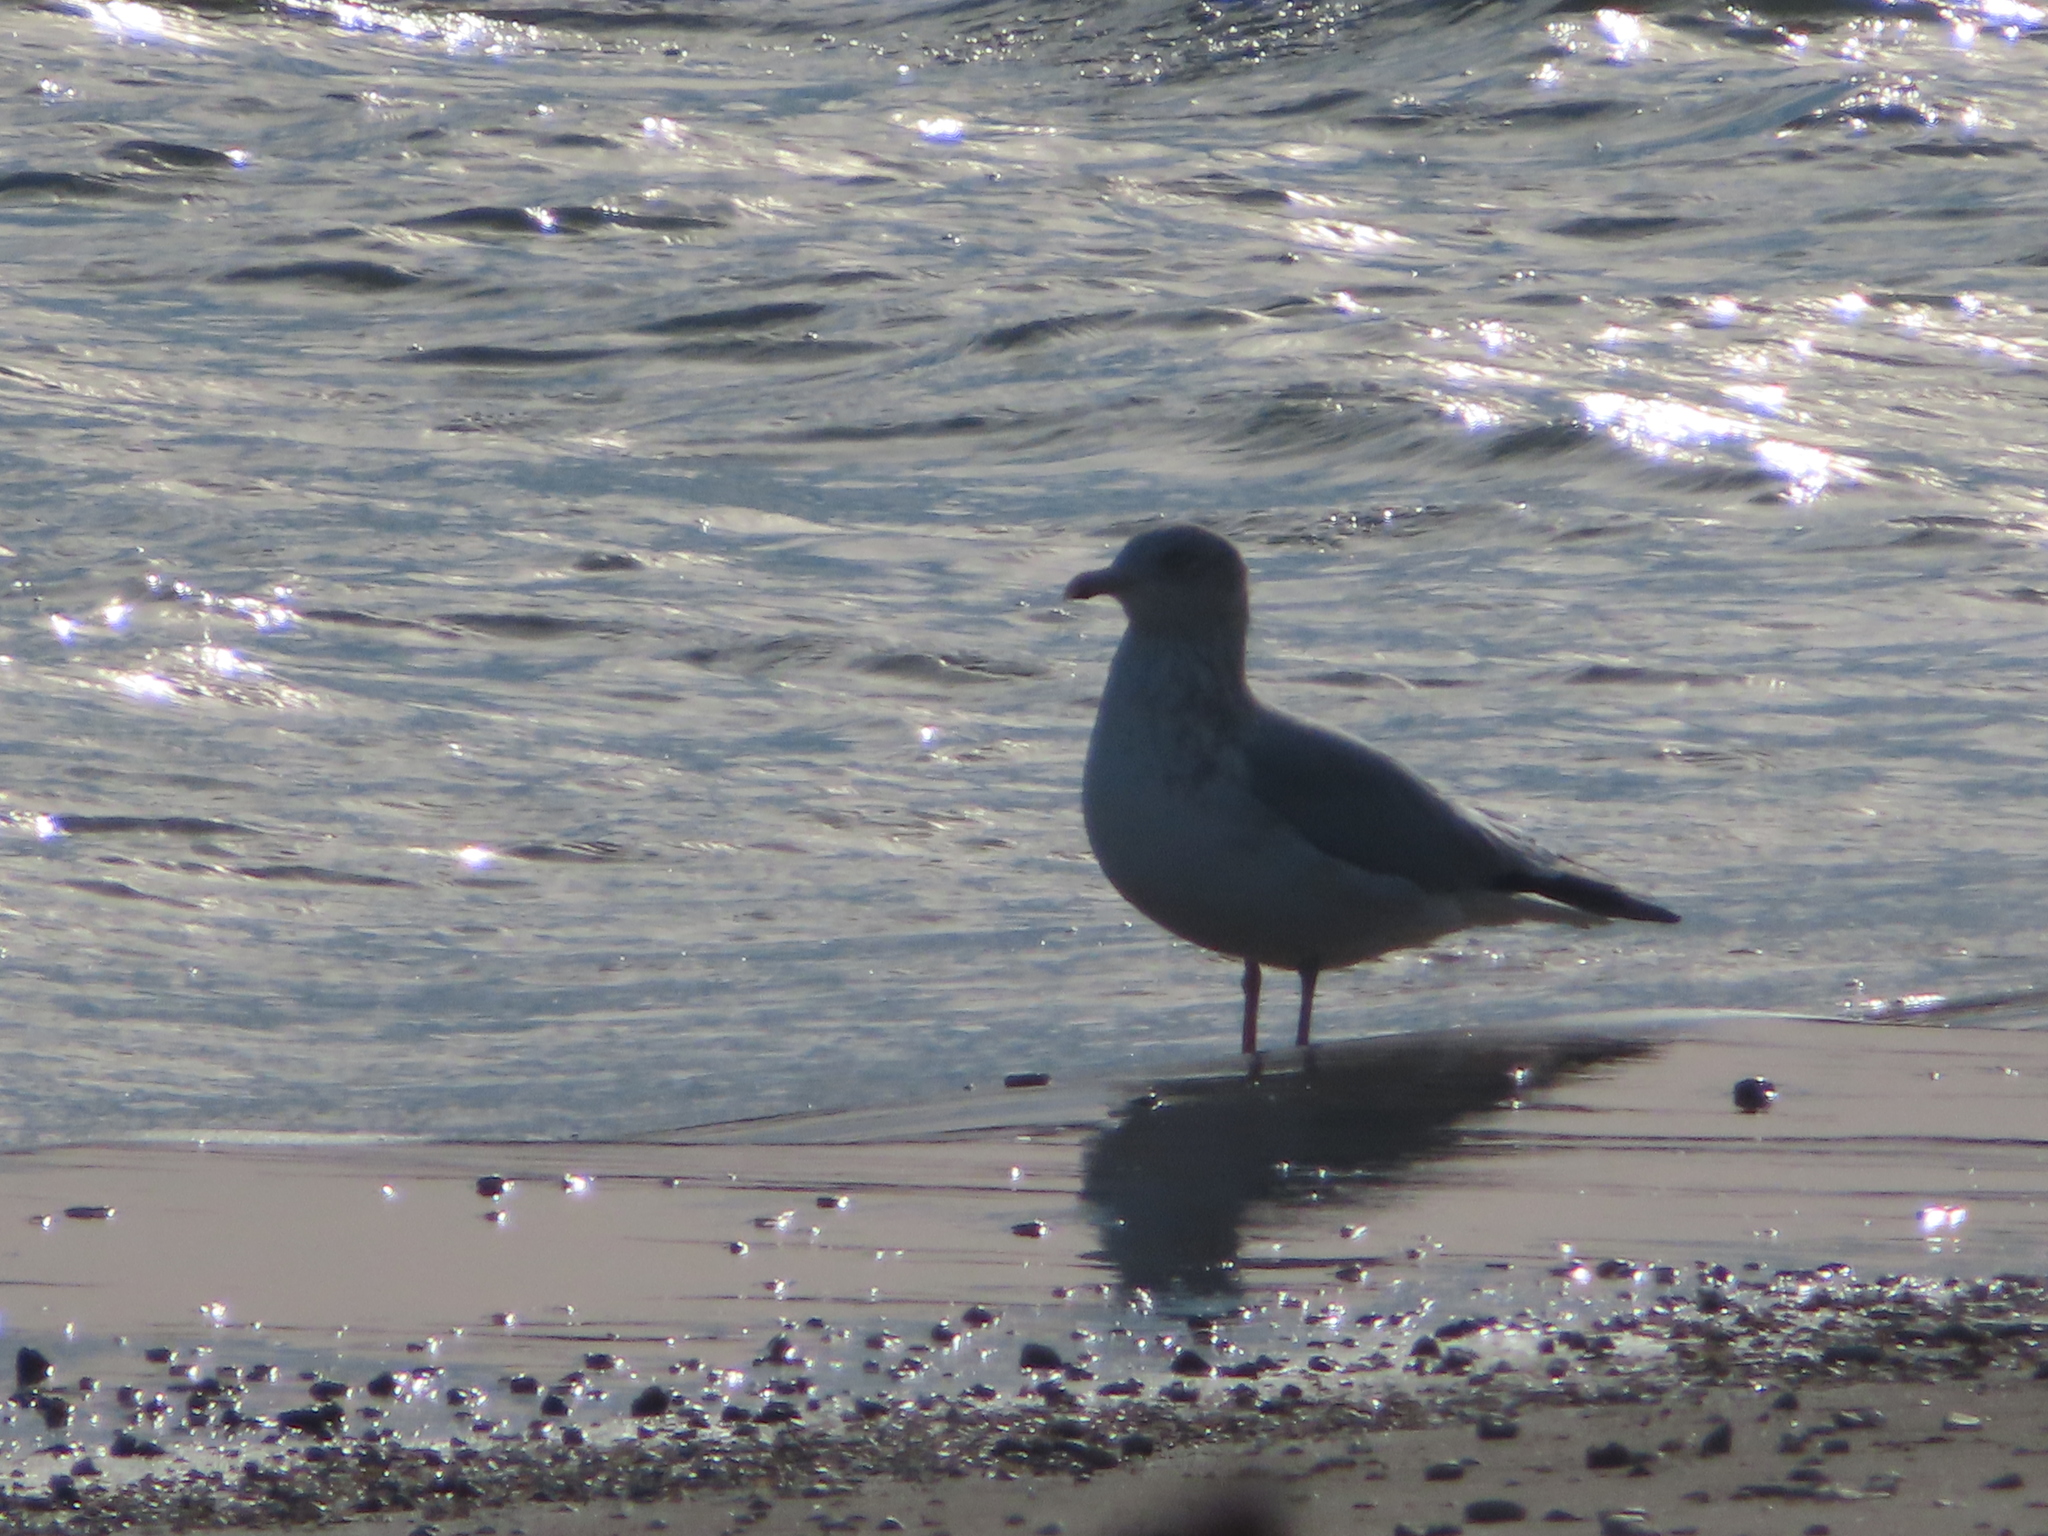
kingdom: Animalia
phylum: Chordata
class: Aves
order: Charadriiformes
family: Laridae
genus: Larus
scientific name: Larus argentatus
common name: Herring gull
